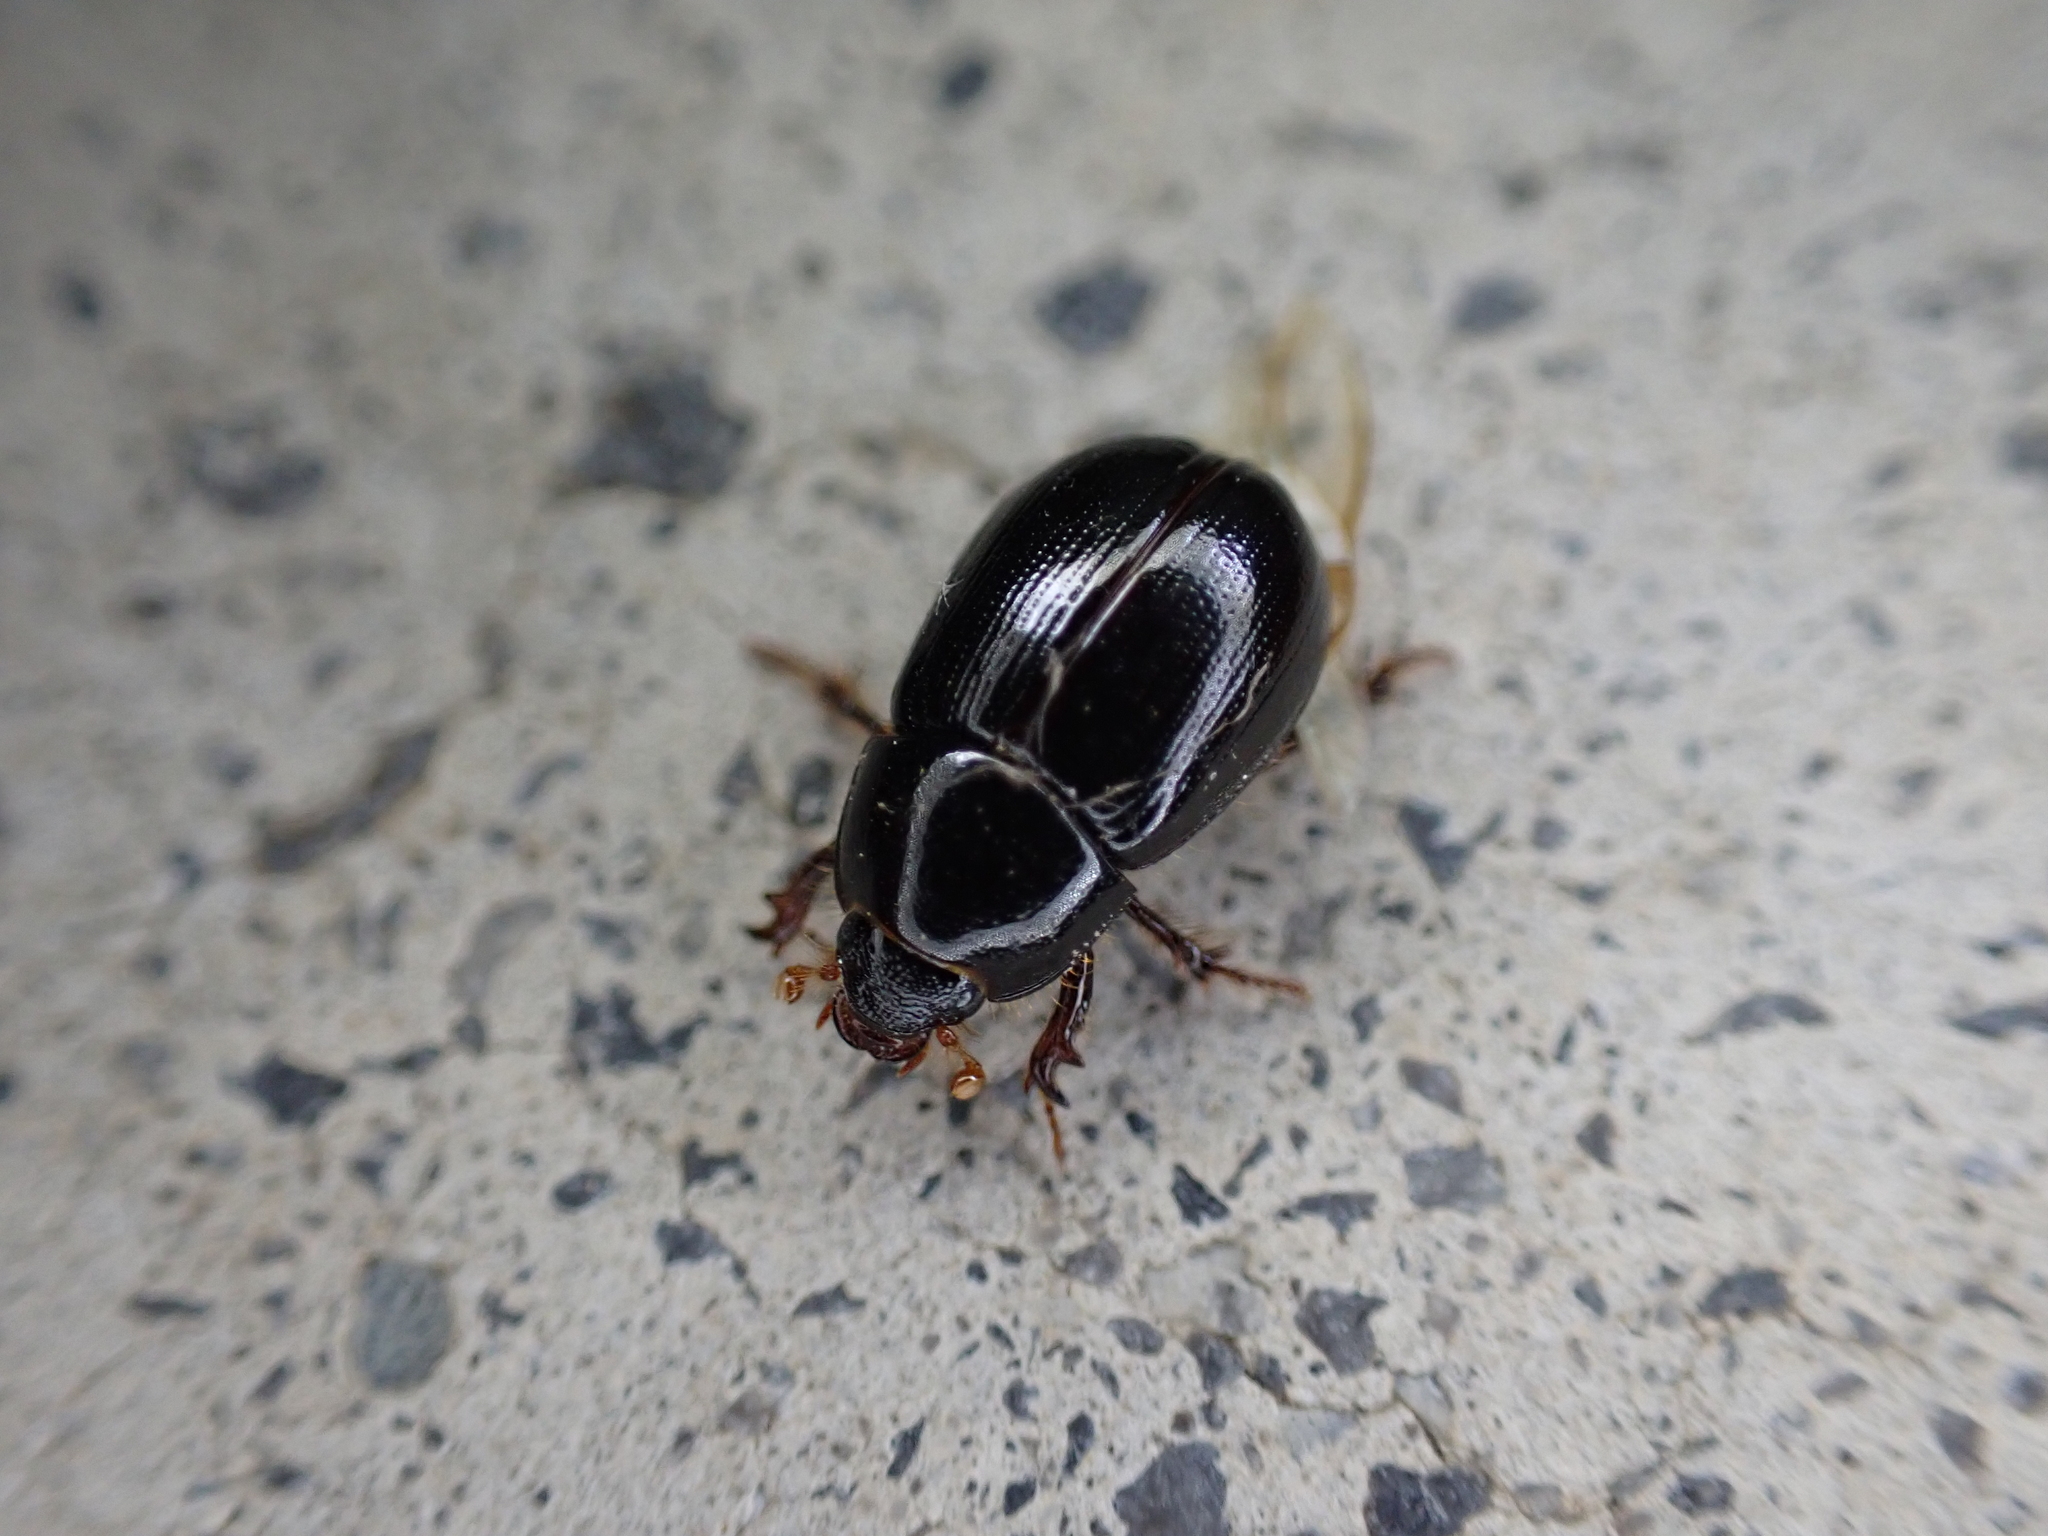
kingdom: Animalia
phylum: Arthropoda
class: Insecta
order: Coleoptera
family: Hybosoridae
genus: Hybosorus
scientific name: Hybosorus illigeri
